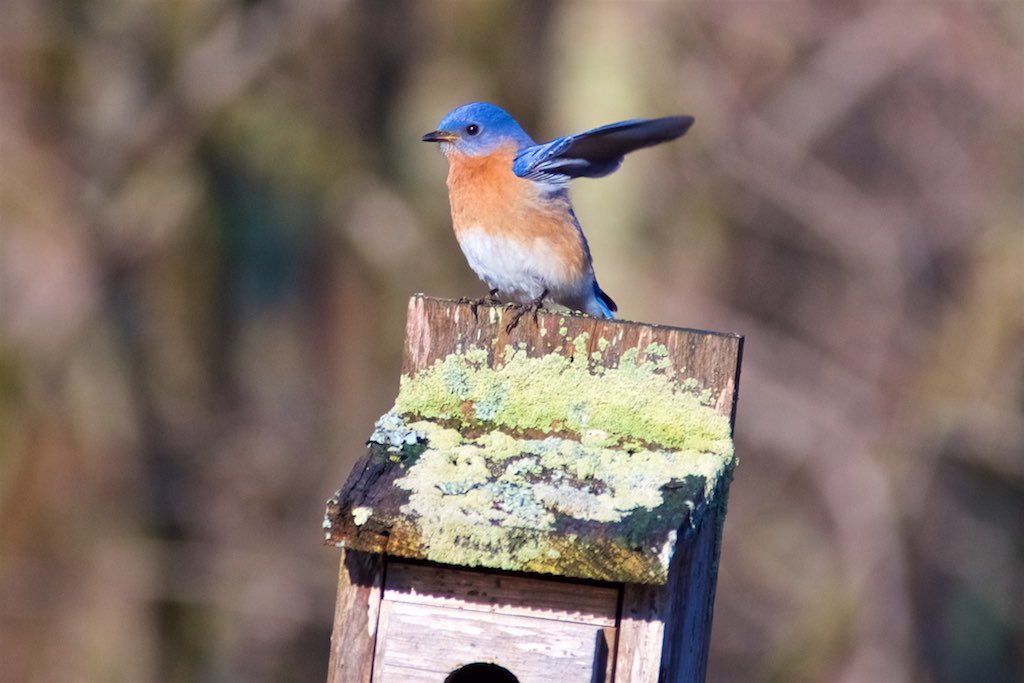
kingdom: Animalia
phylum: Chordata
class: Aves
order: Passeriformes
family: Turdidae
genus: Sialia
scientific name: Sialia sialis
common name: Eastern bluebird
